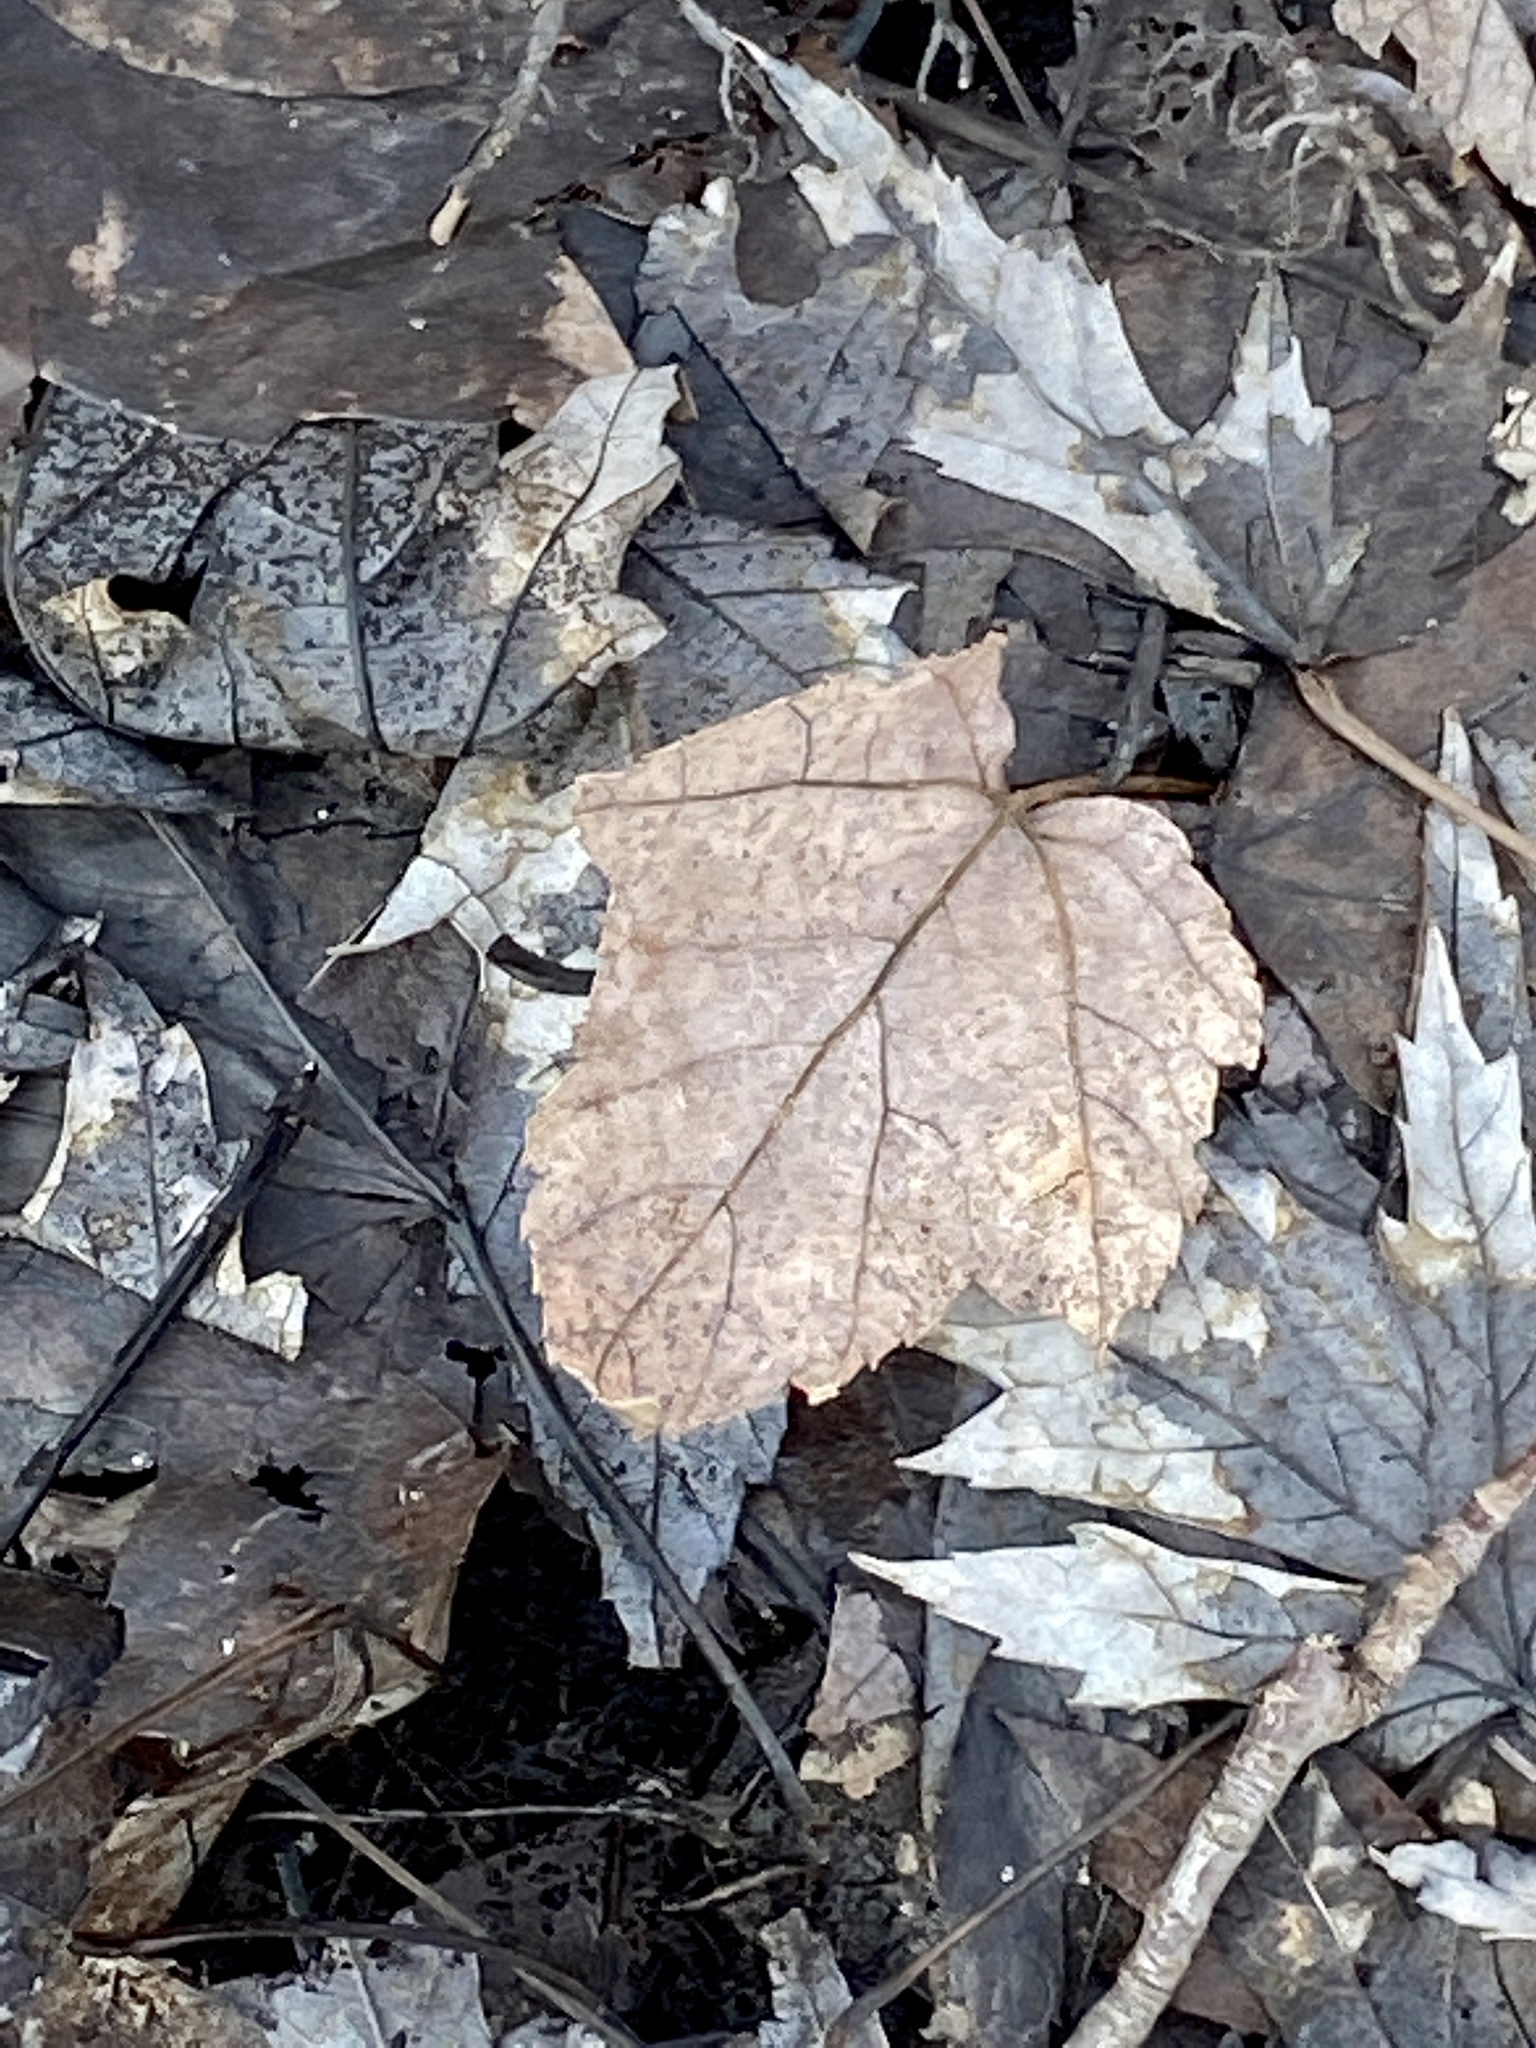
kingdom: Plantae
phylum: Tracheophyta
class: Magnoliopsida
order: Sapindales
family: Sapindaceae
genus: Acer
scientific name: Acer rubrum
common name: Red maple
